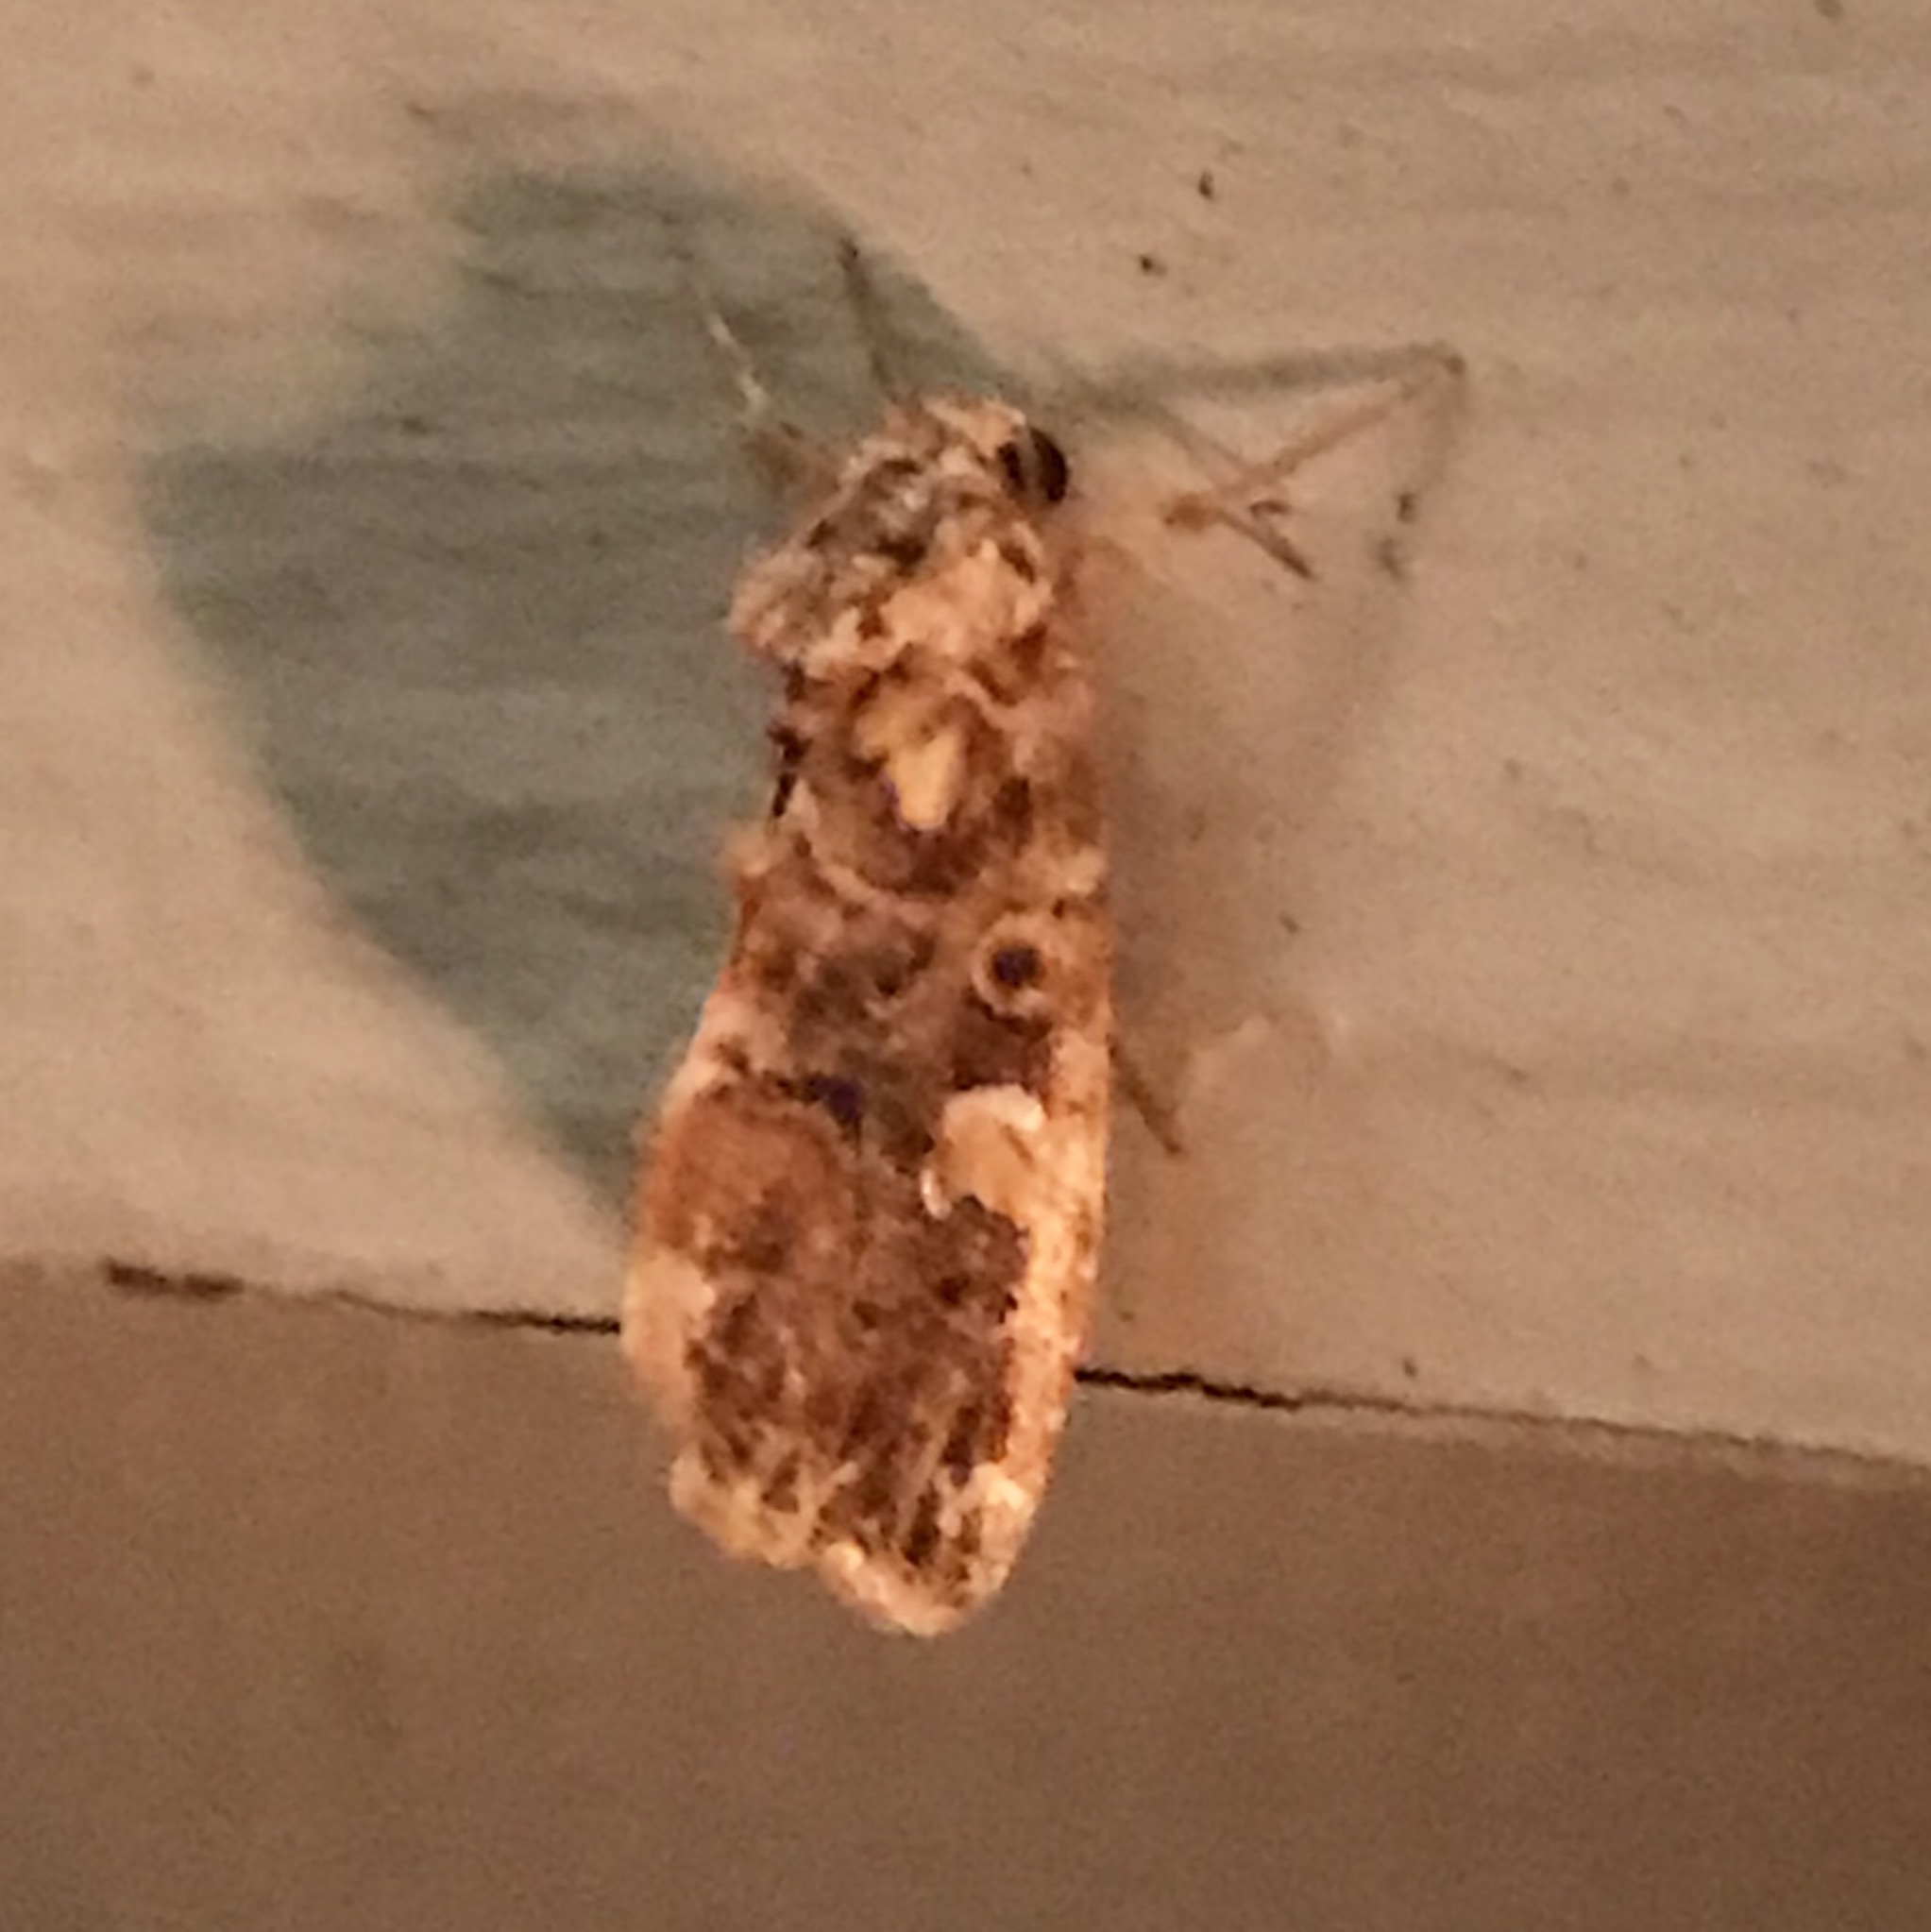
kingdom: Animalia
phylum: Arthropoda
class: Insecta
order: Lepidoptera
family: Noctuidae
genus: Callopistria
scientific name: Callopistria mollissima
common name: Pink-shaded fern moth
